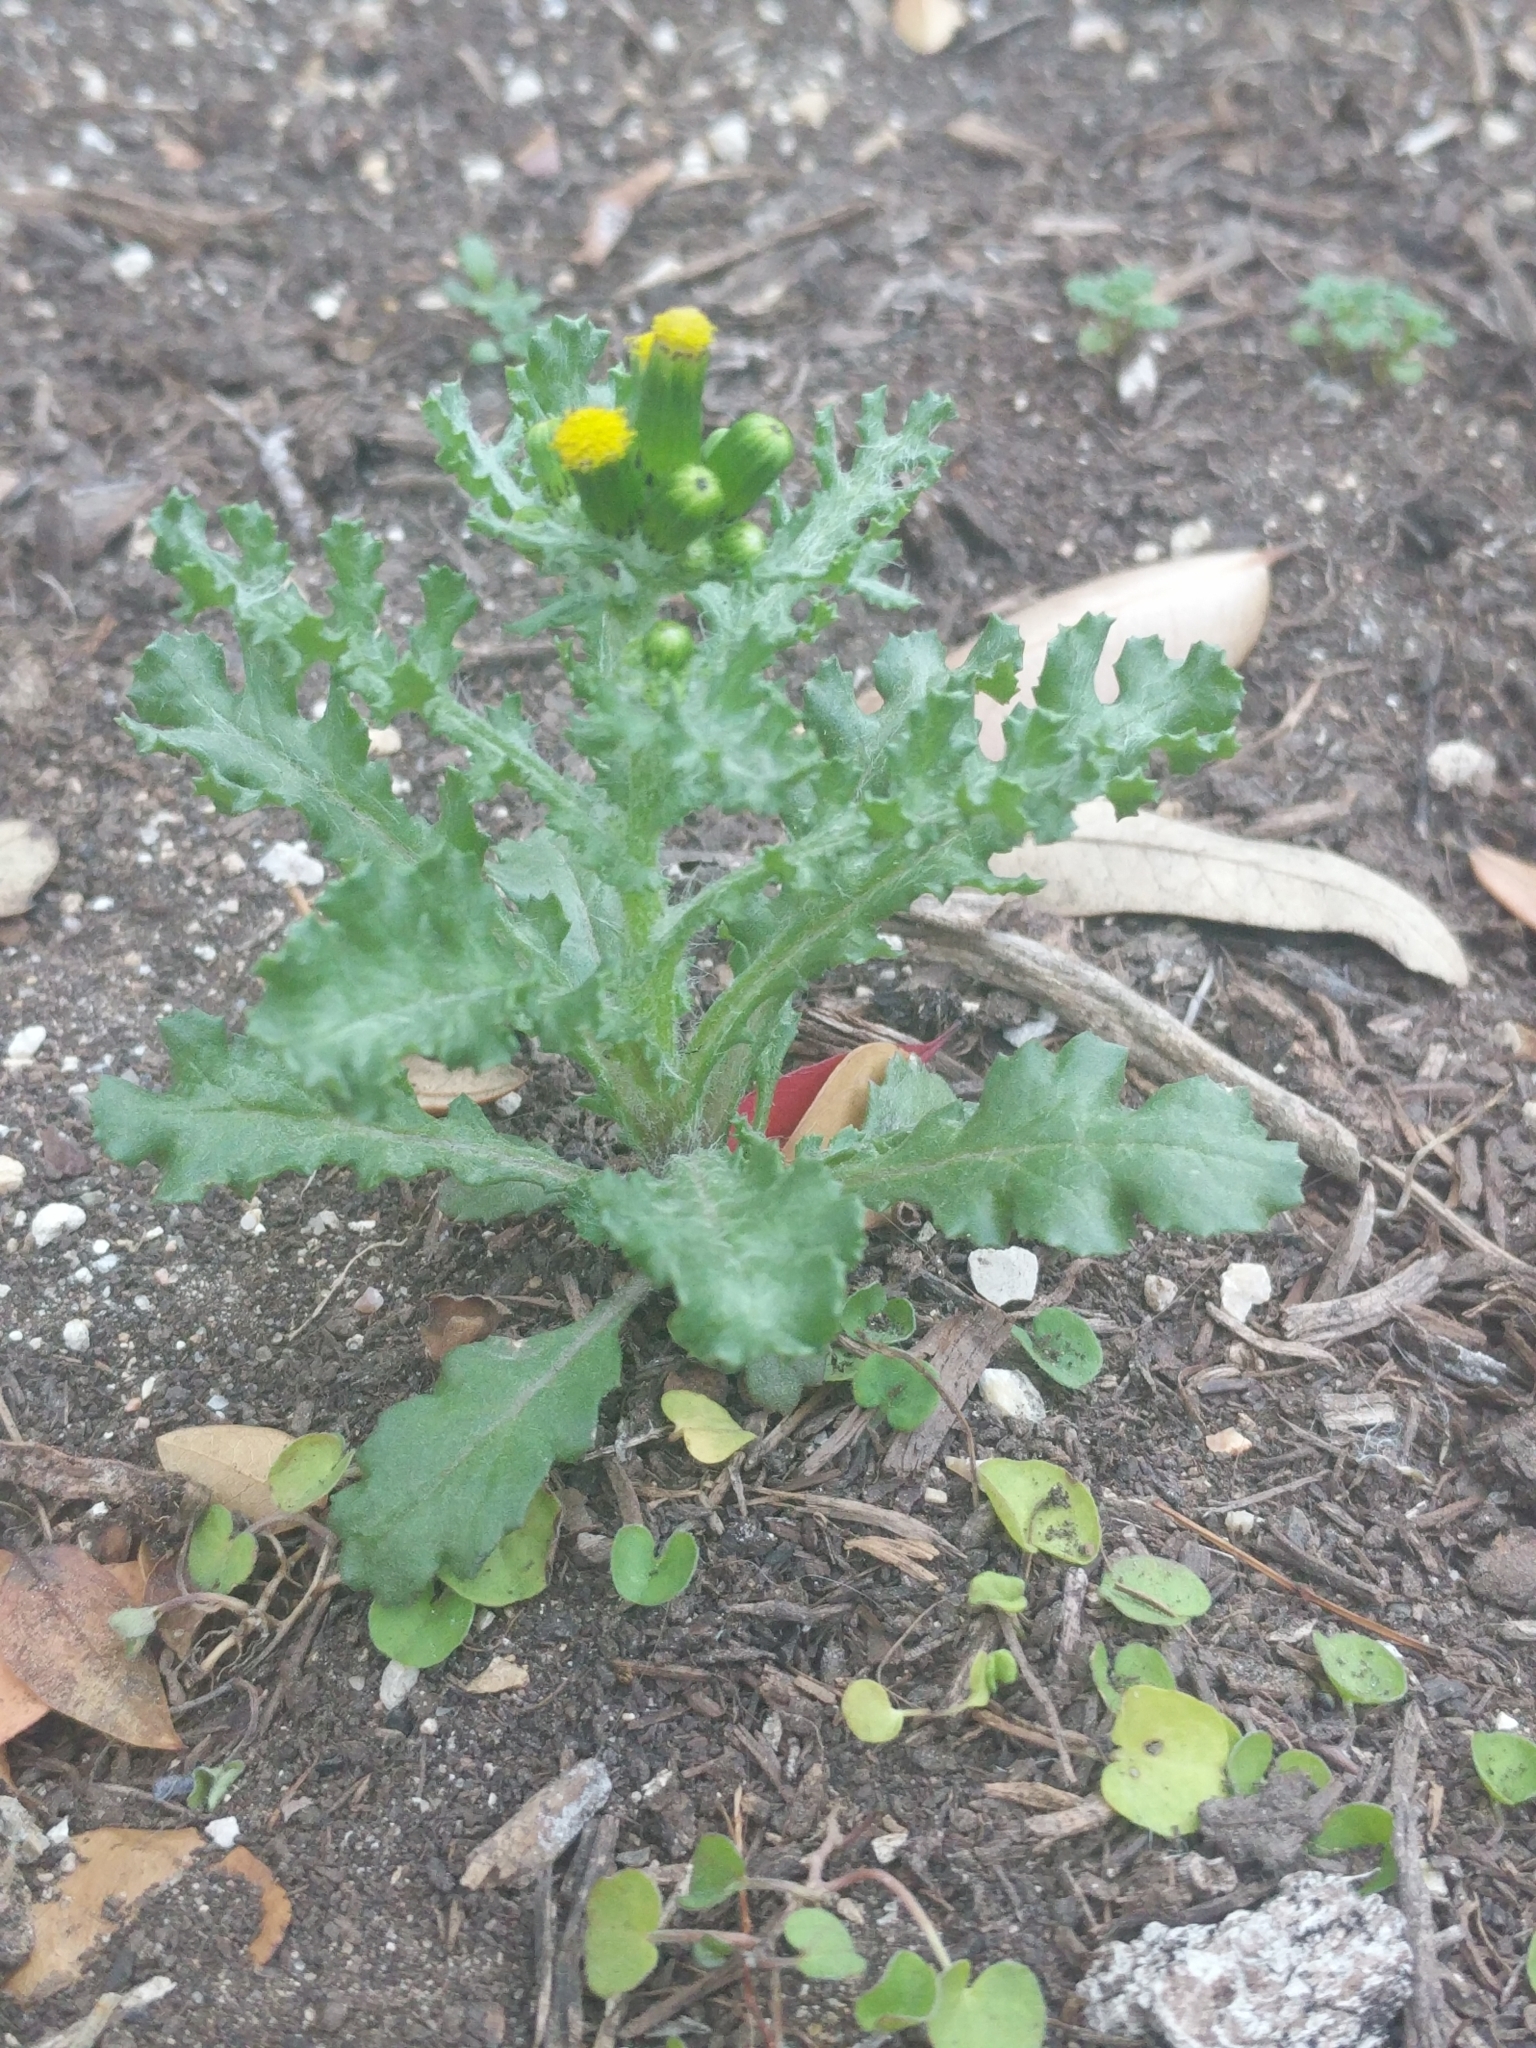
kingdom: Plantae
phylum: Tracheophyta
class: Magnoliopsida
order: Asterales
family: Asteraceae
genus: Senecio
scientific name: Senecio vulgaris
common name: Old-man-in-the-spring
